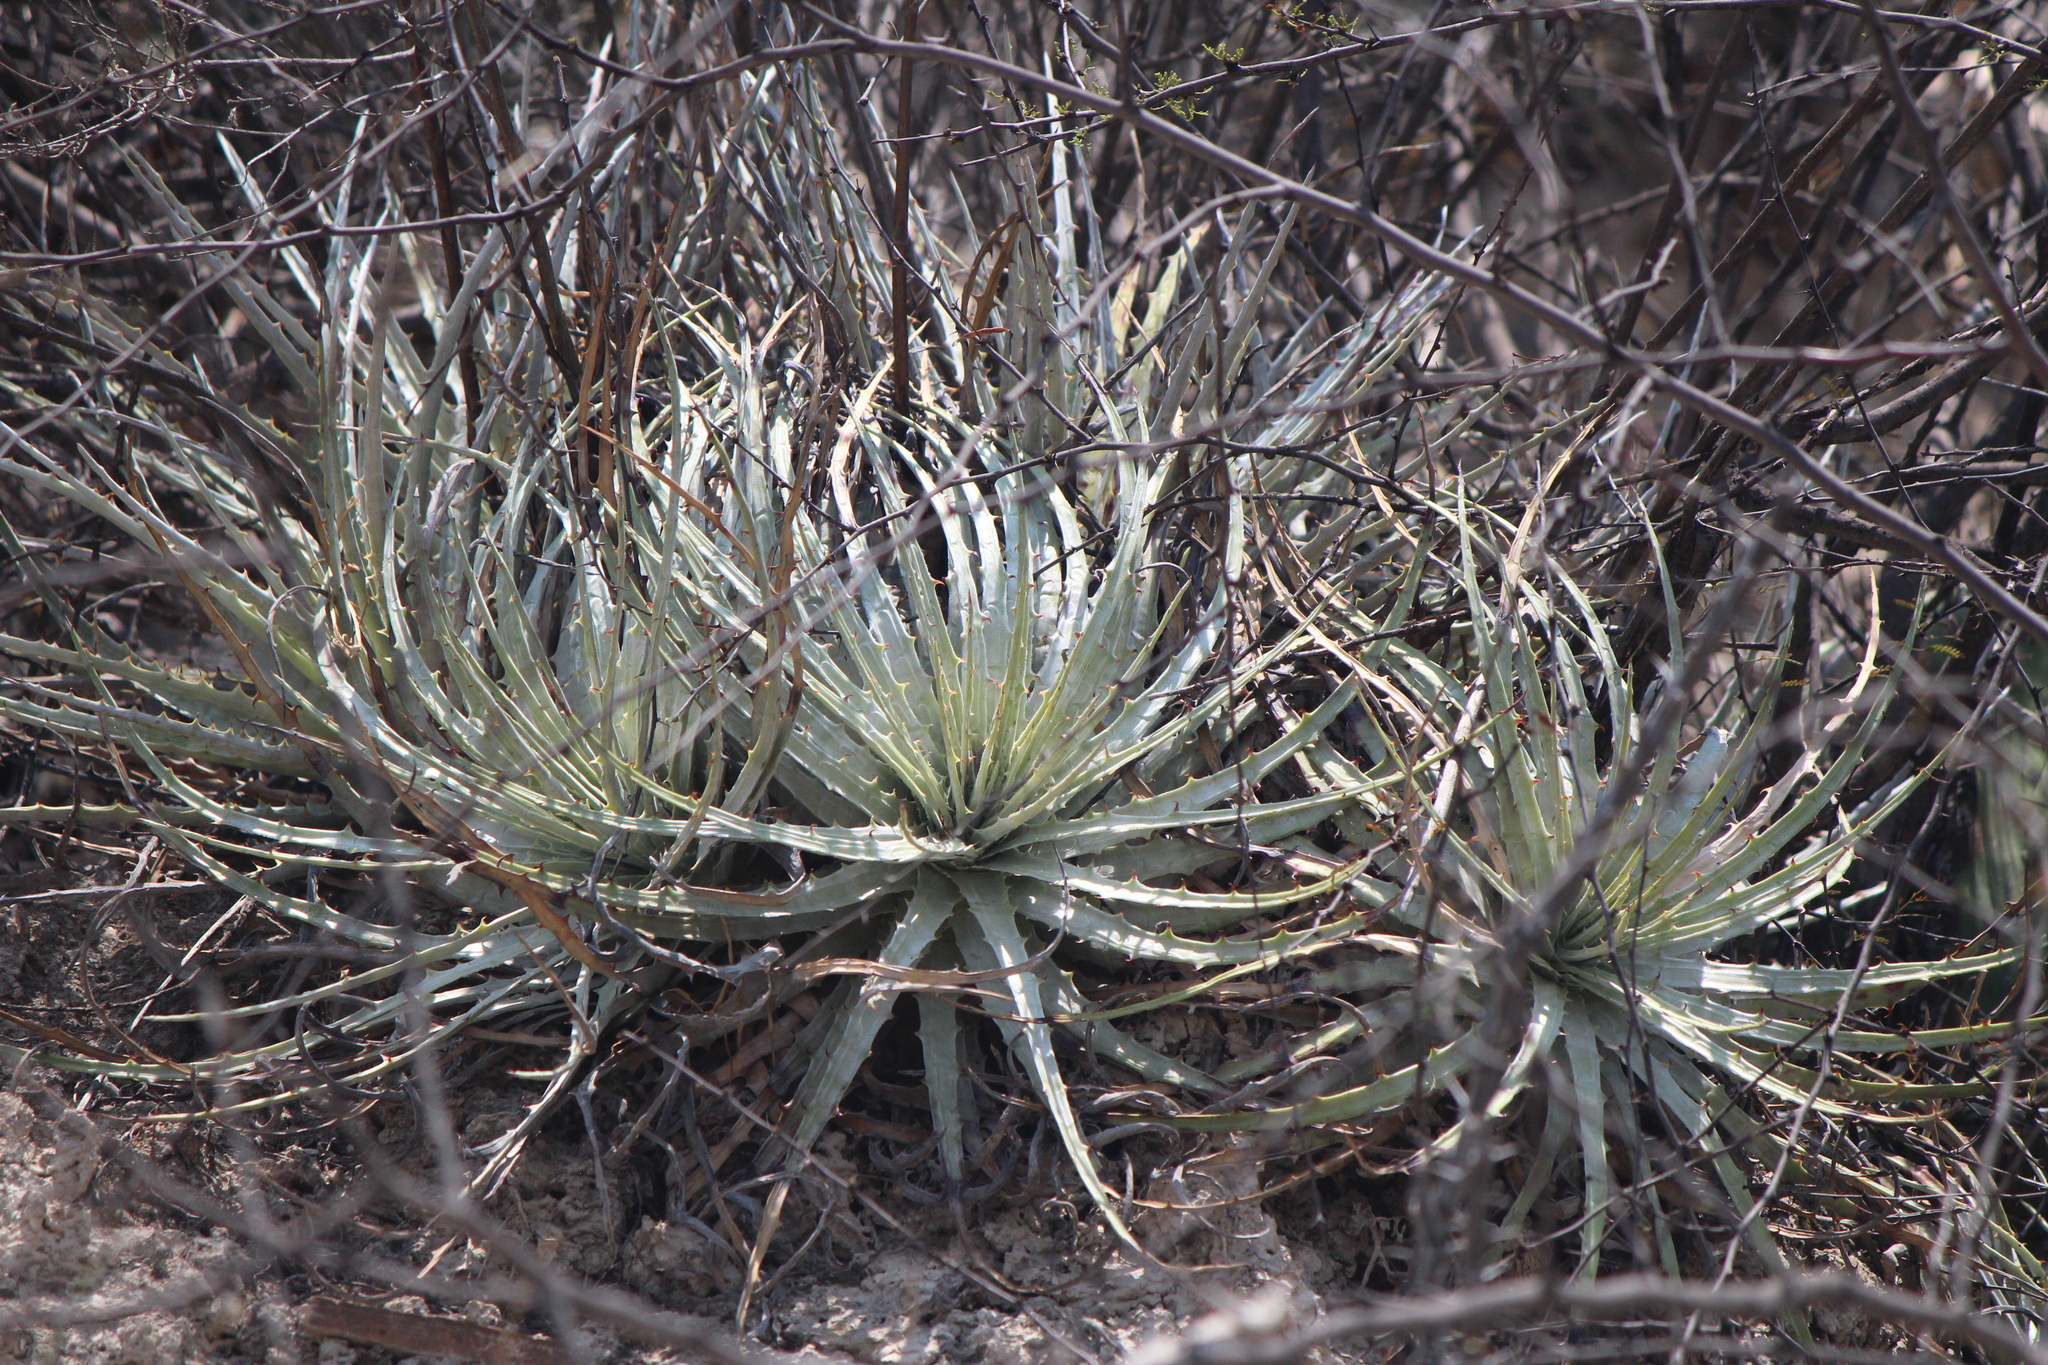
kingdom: Plantae
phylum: Tracheophyta
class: Liliopsida
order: Poales
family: Bromeliaceae
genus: Hechtia
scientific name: Hechtia lepidophylla
